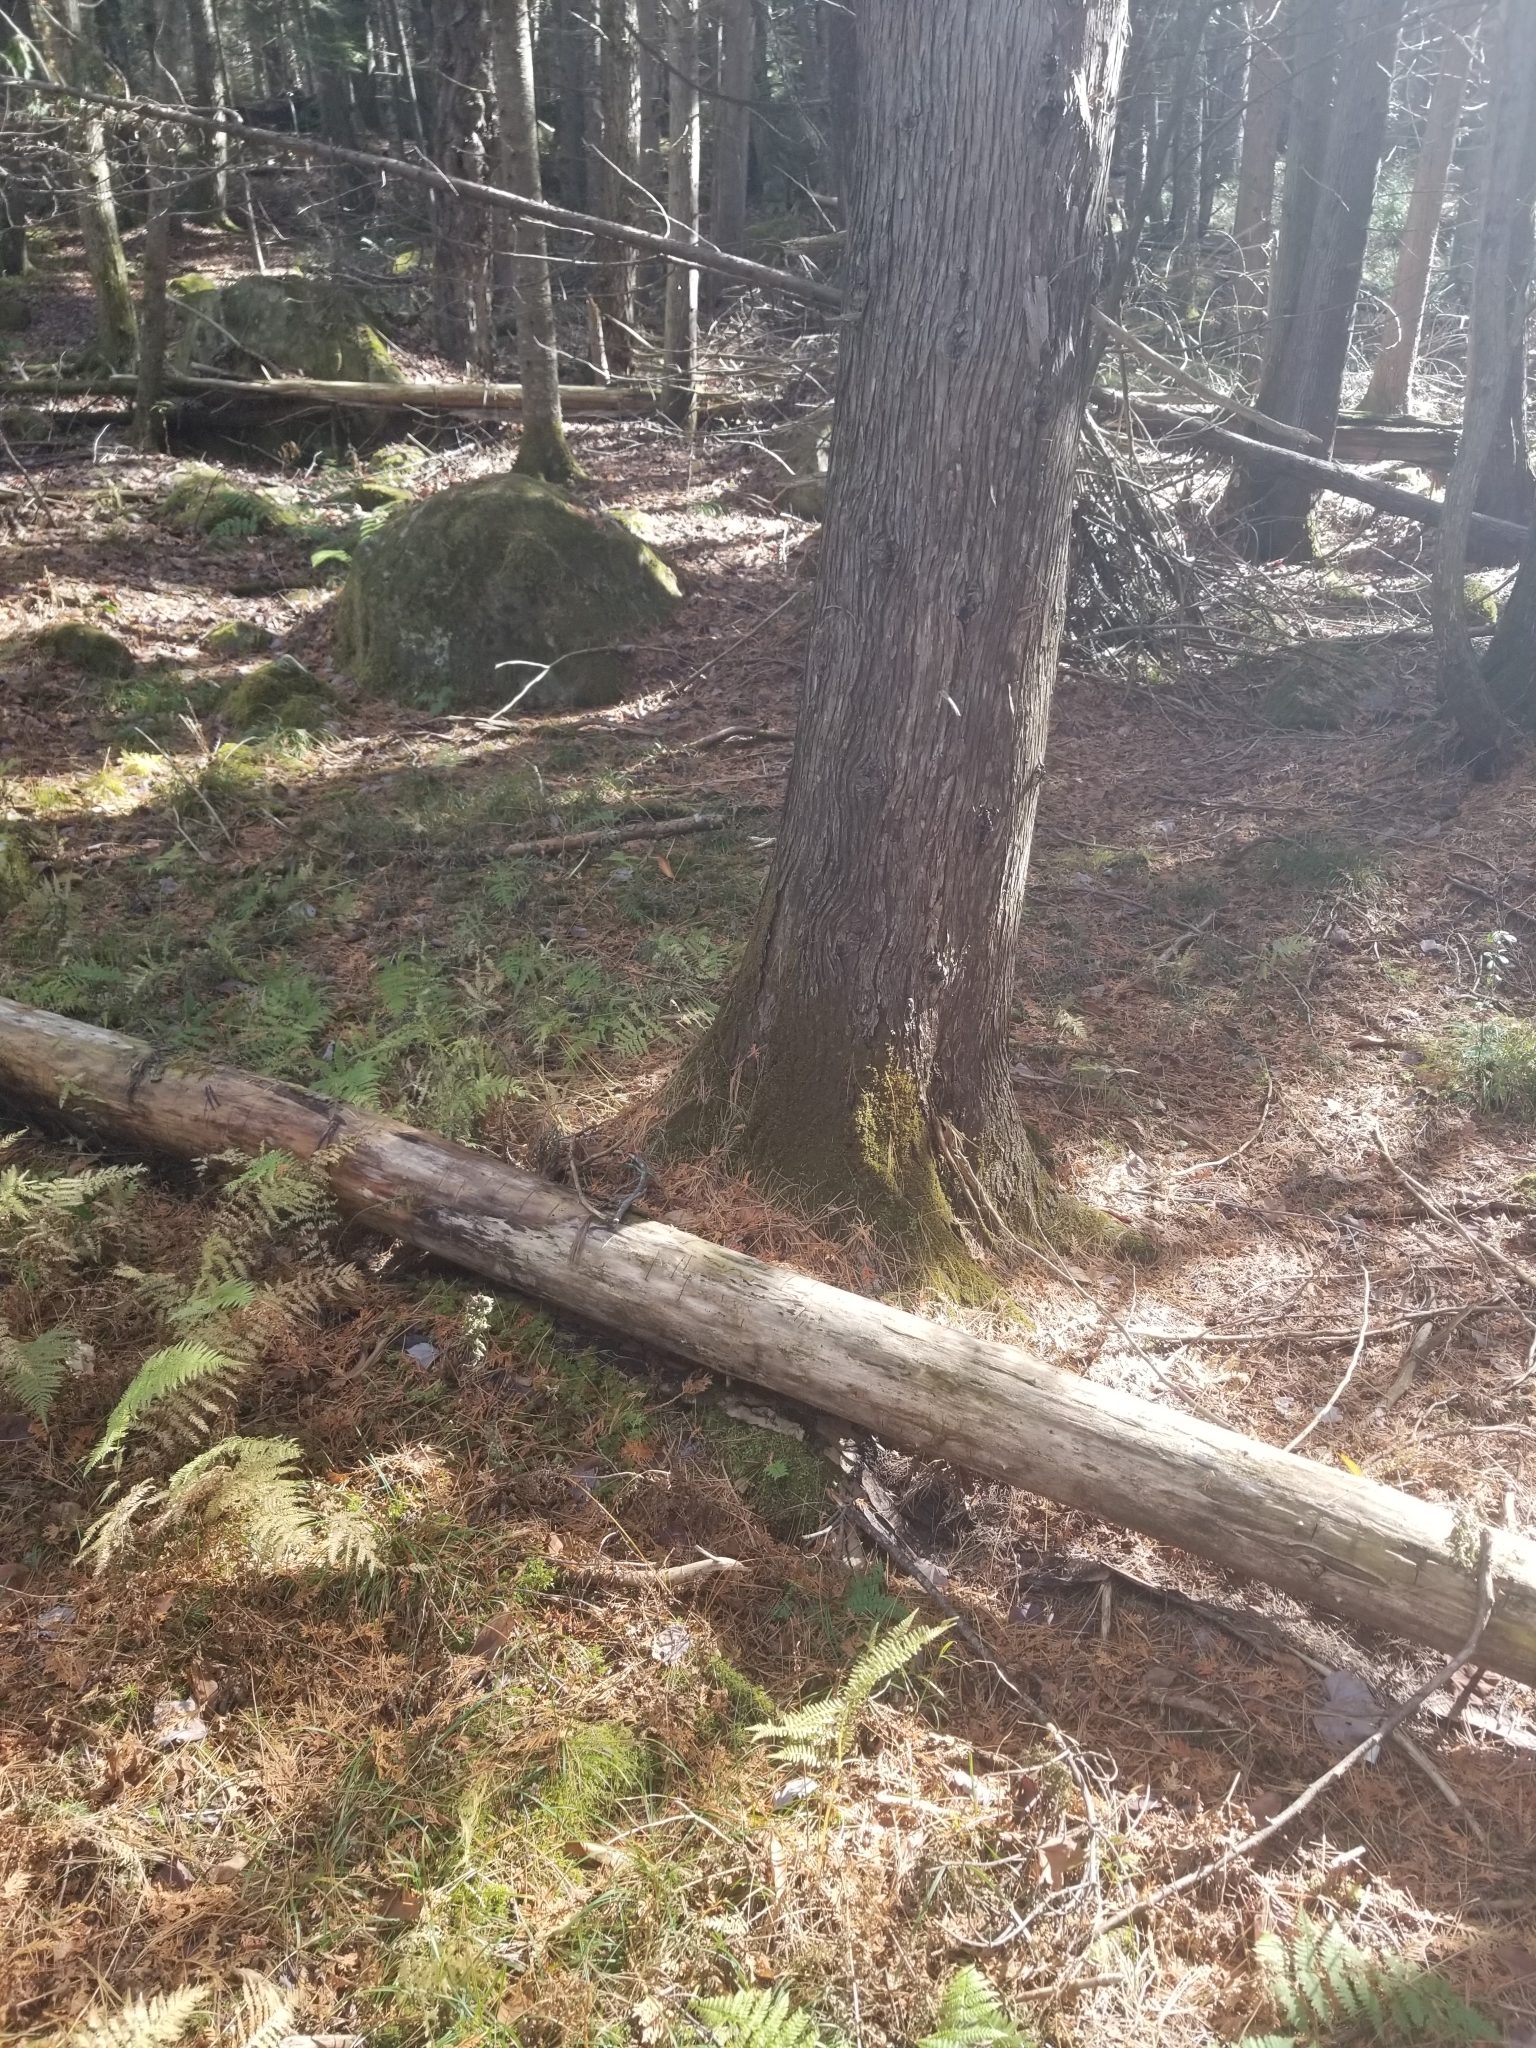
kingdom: Plantae
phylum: Tracheophyta
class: Pinopsida
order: Pinales
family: Cupressaceae
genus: Thuja
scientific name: Thuja occidentalis
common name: Northern white-cedar
